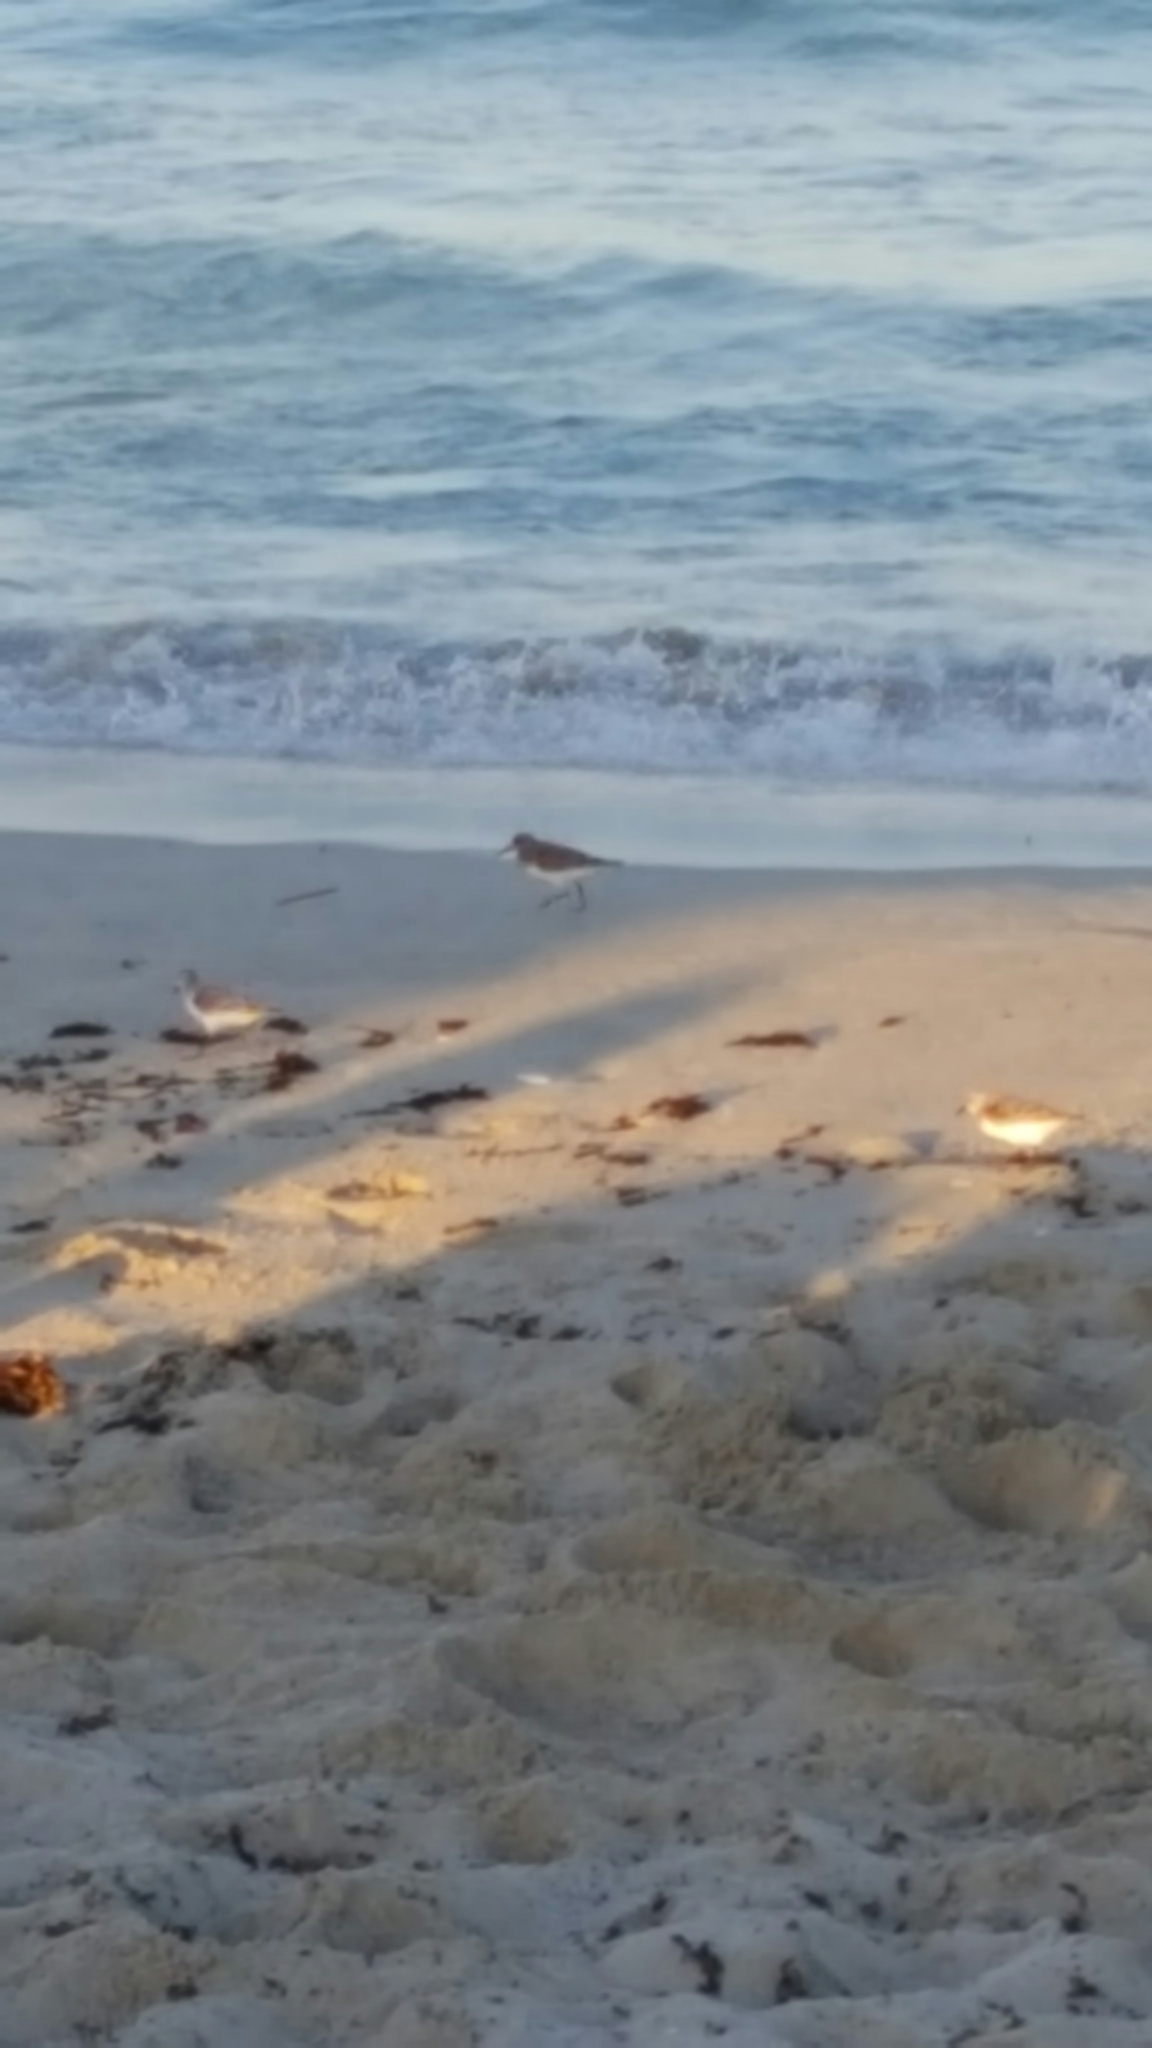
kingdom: Animalia
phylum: Chordata
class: Aves
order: Charadriiformes
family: Scolopacidae
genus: Calidris
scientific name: Calidris alba
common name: Sanderling
